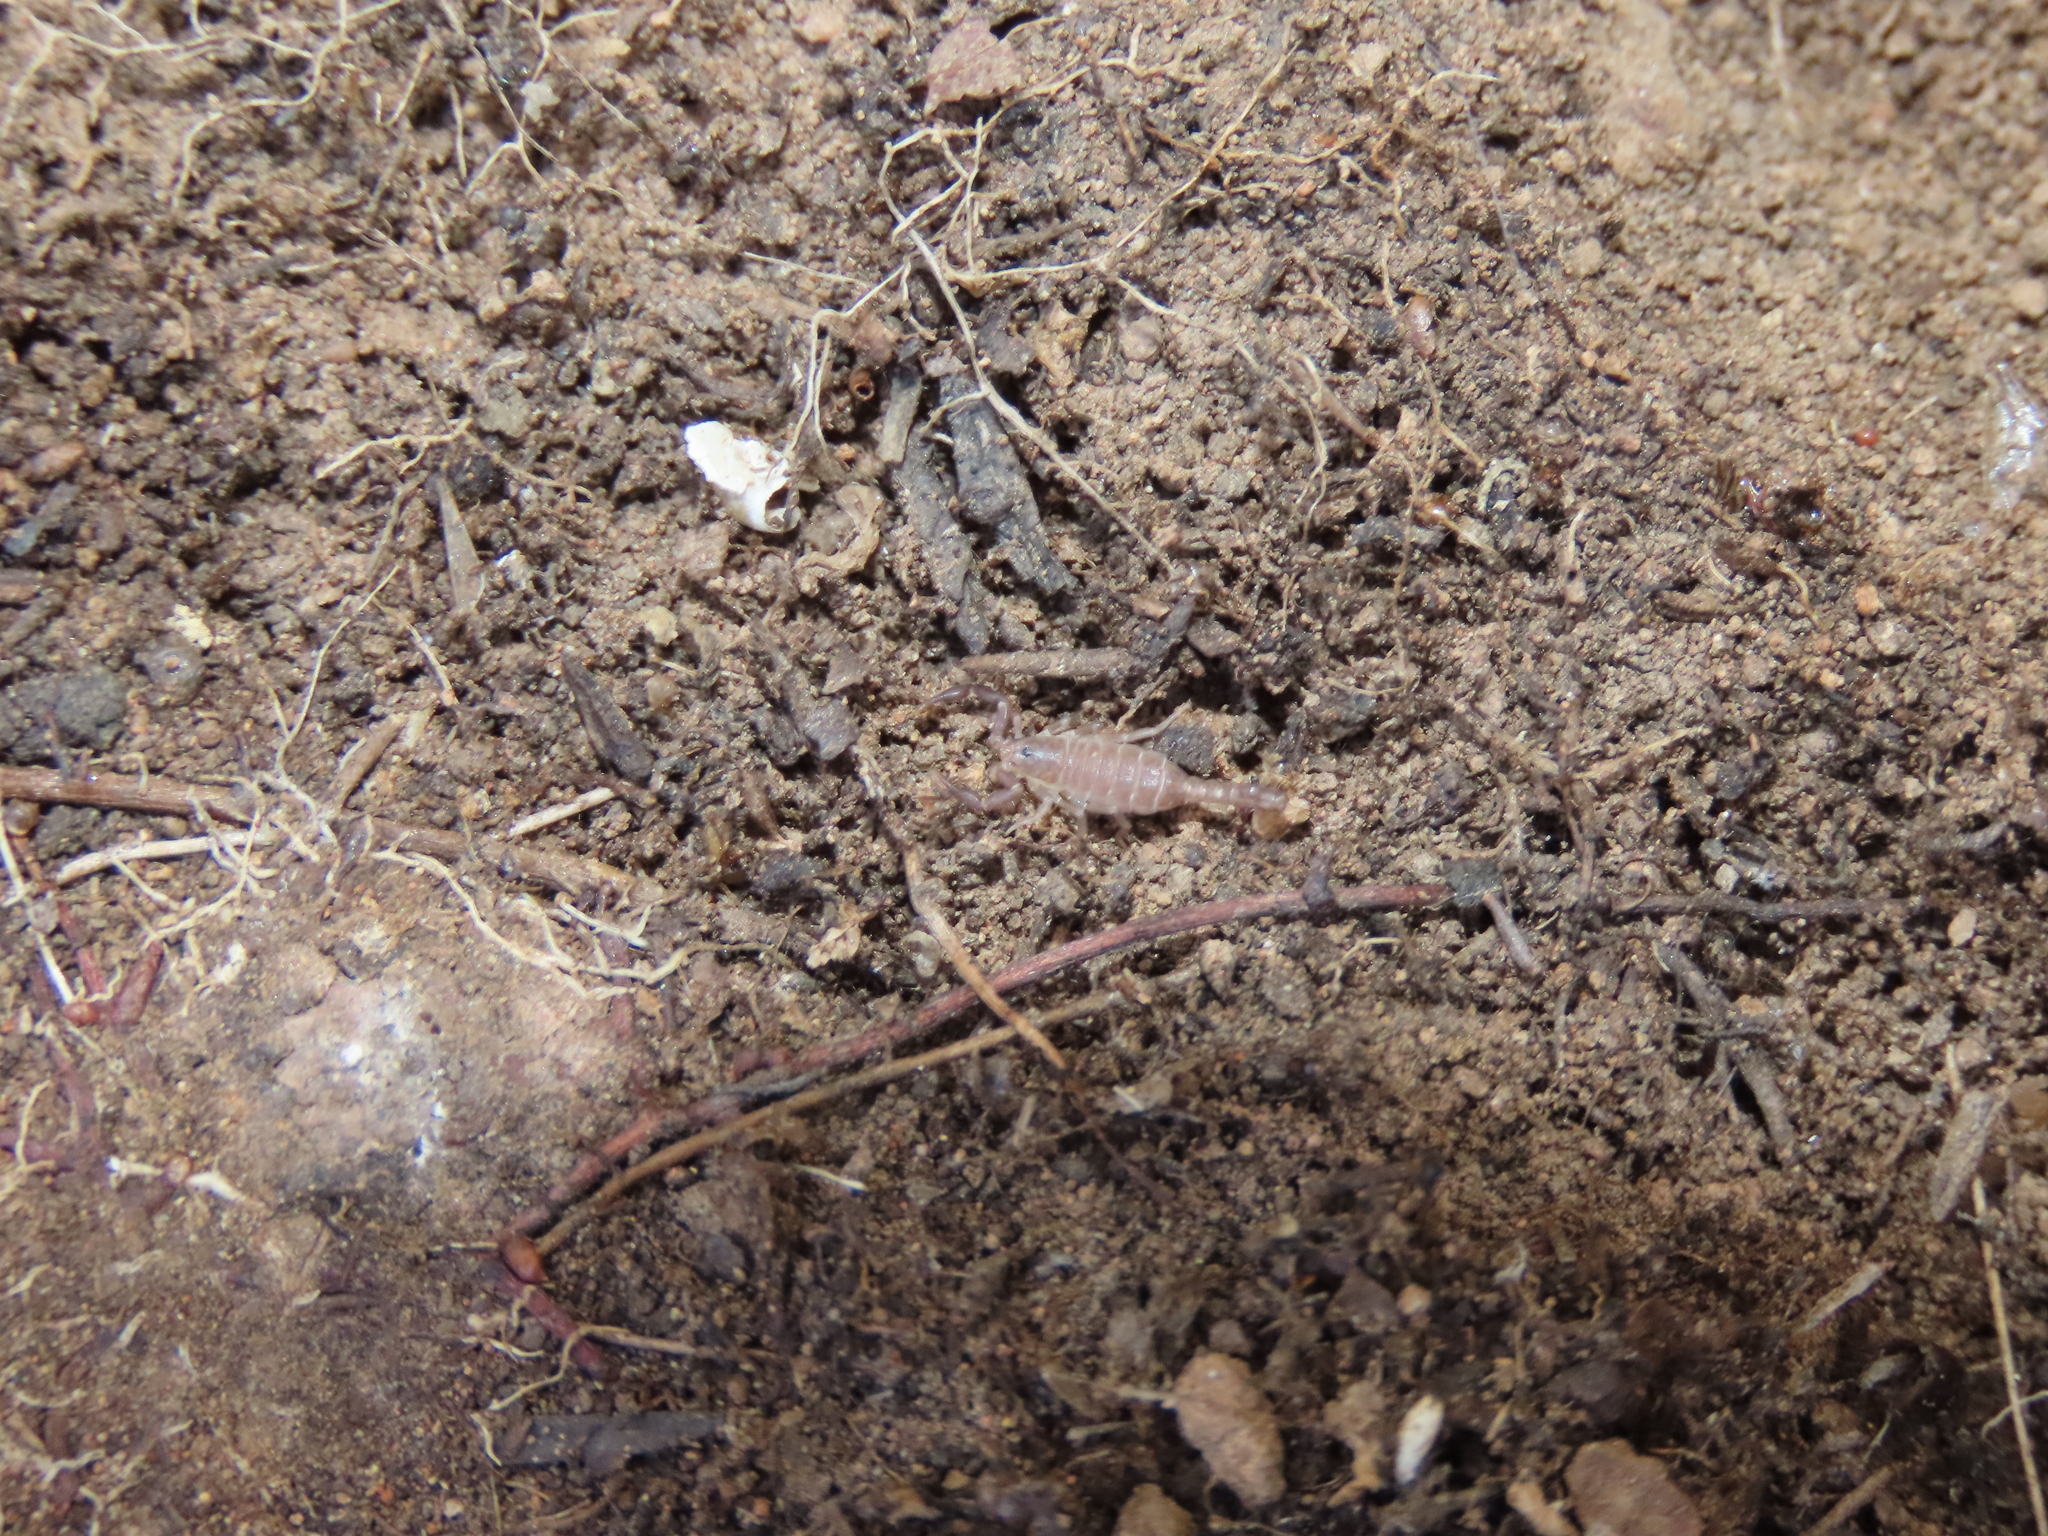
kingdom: Animalia
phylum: Arthropoda
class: Arachnida
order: Scorpiones
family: Vaejovidae
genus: Vaejovis
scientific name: Vaejovis cashi
